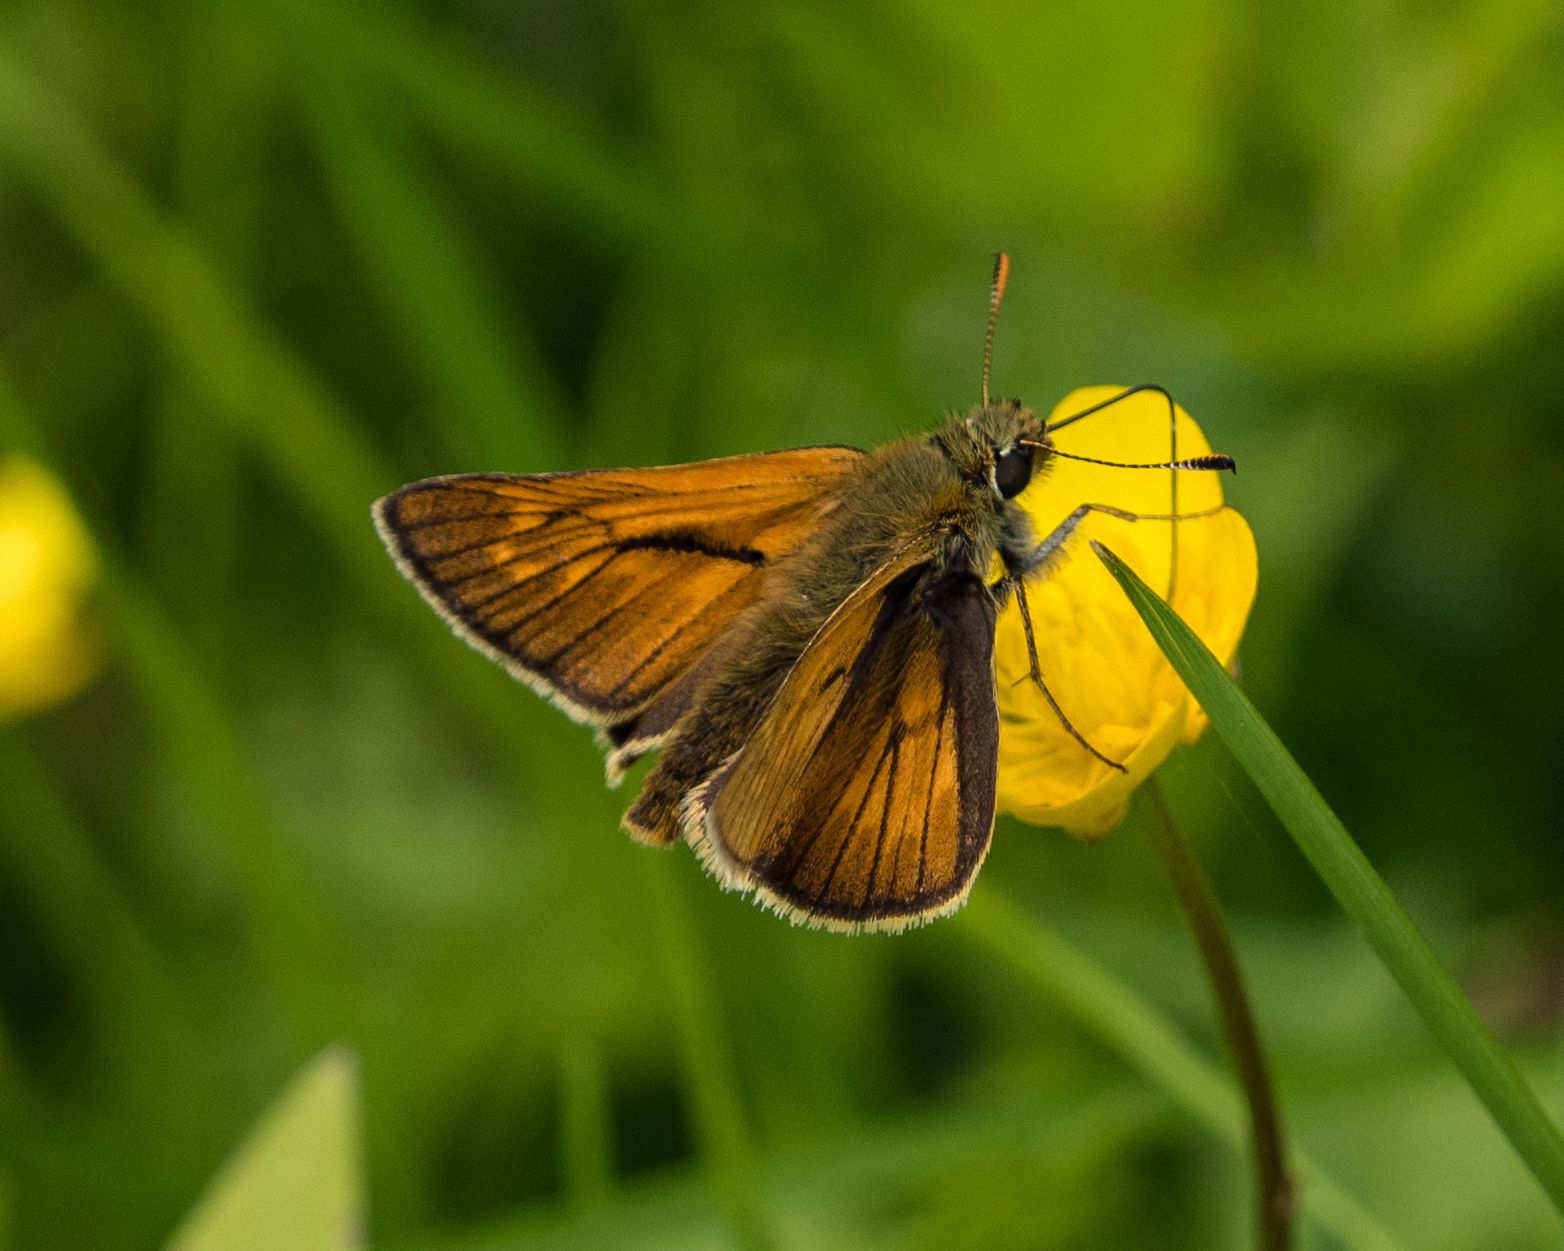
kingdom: Animalia
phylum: Arthropoda
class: Insecta
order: Lepidoptera
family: Hesperiidae
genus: Ochlodes
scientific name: Ochlodes venata
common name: Large skipper
